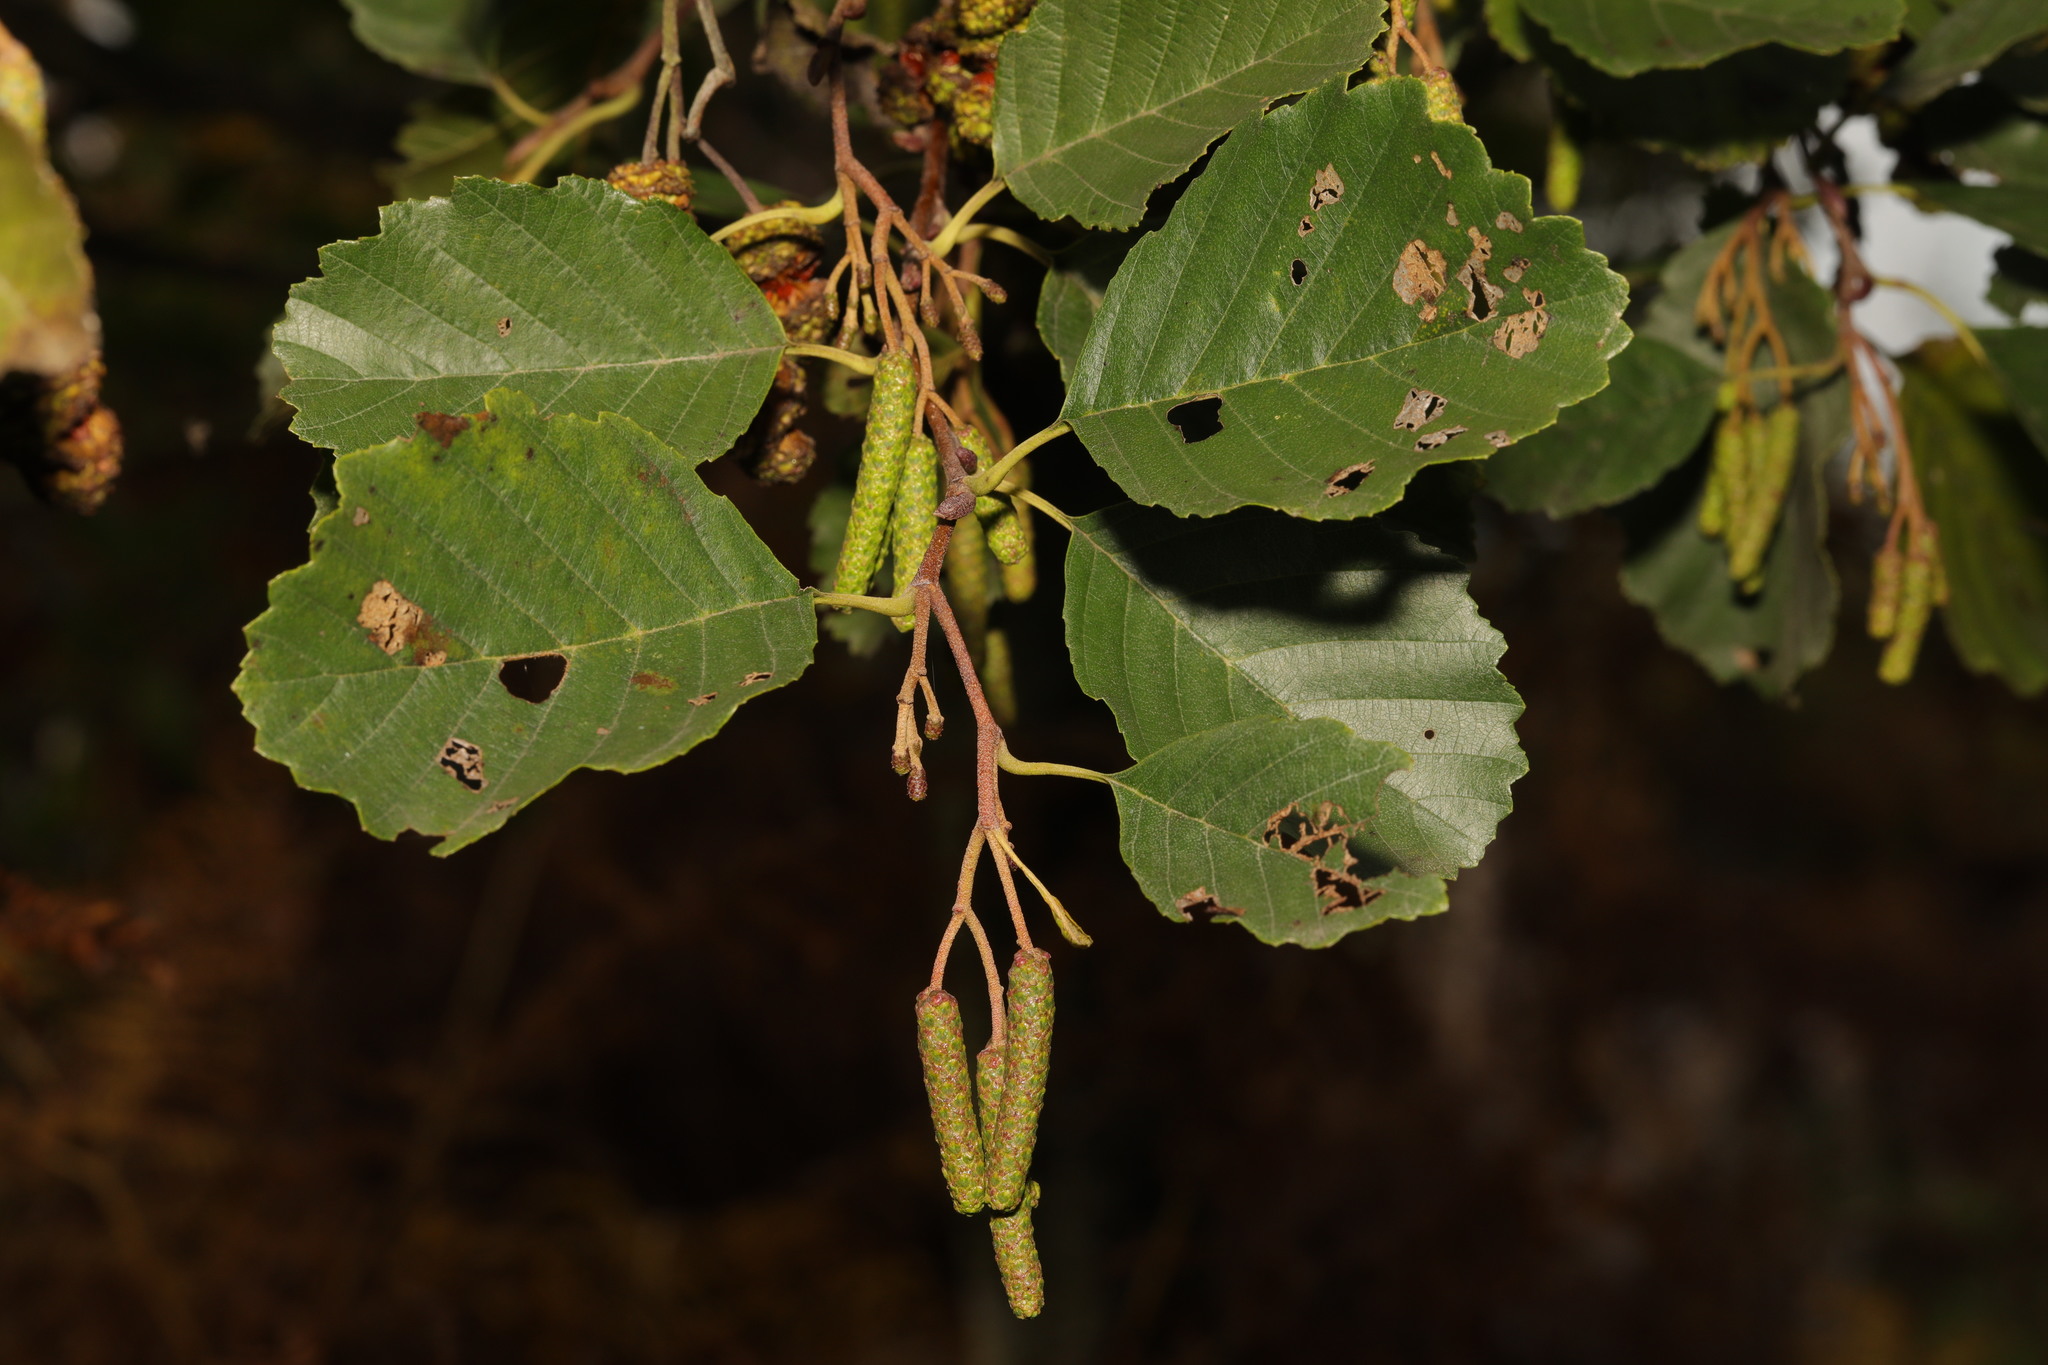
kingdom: Plantae
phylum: Tracheophyta
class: Magnoliopsida
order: Fagales
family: Betulaceae
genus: Alnus
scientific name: Alnus glutinosa
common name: Black alder
